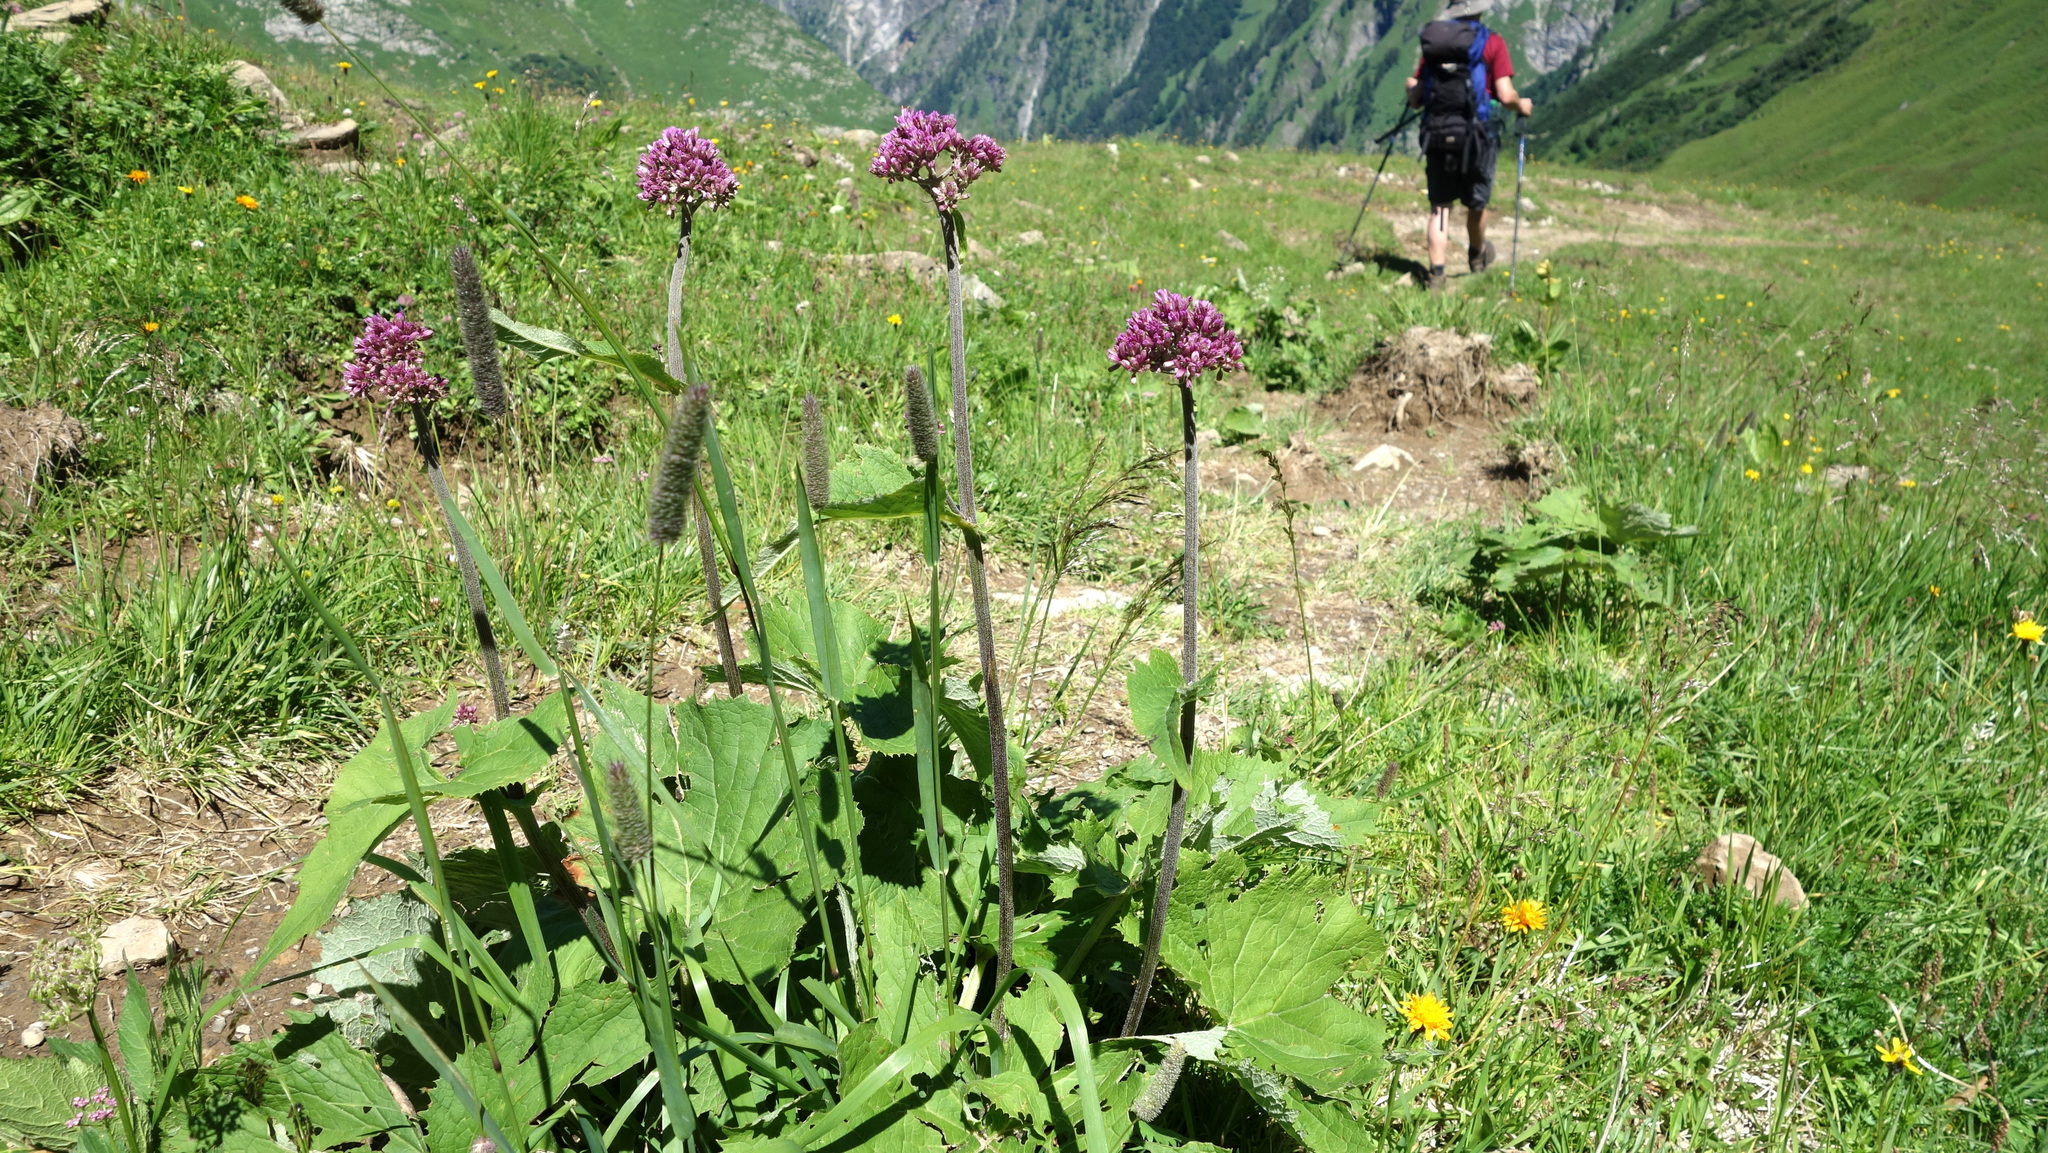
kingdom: Plantae
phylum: Tracheophyta
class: Magnoliopsida
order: Asterales
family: Asteraceae
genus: Adenostyles
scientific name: Adenostyles alliariae
